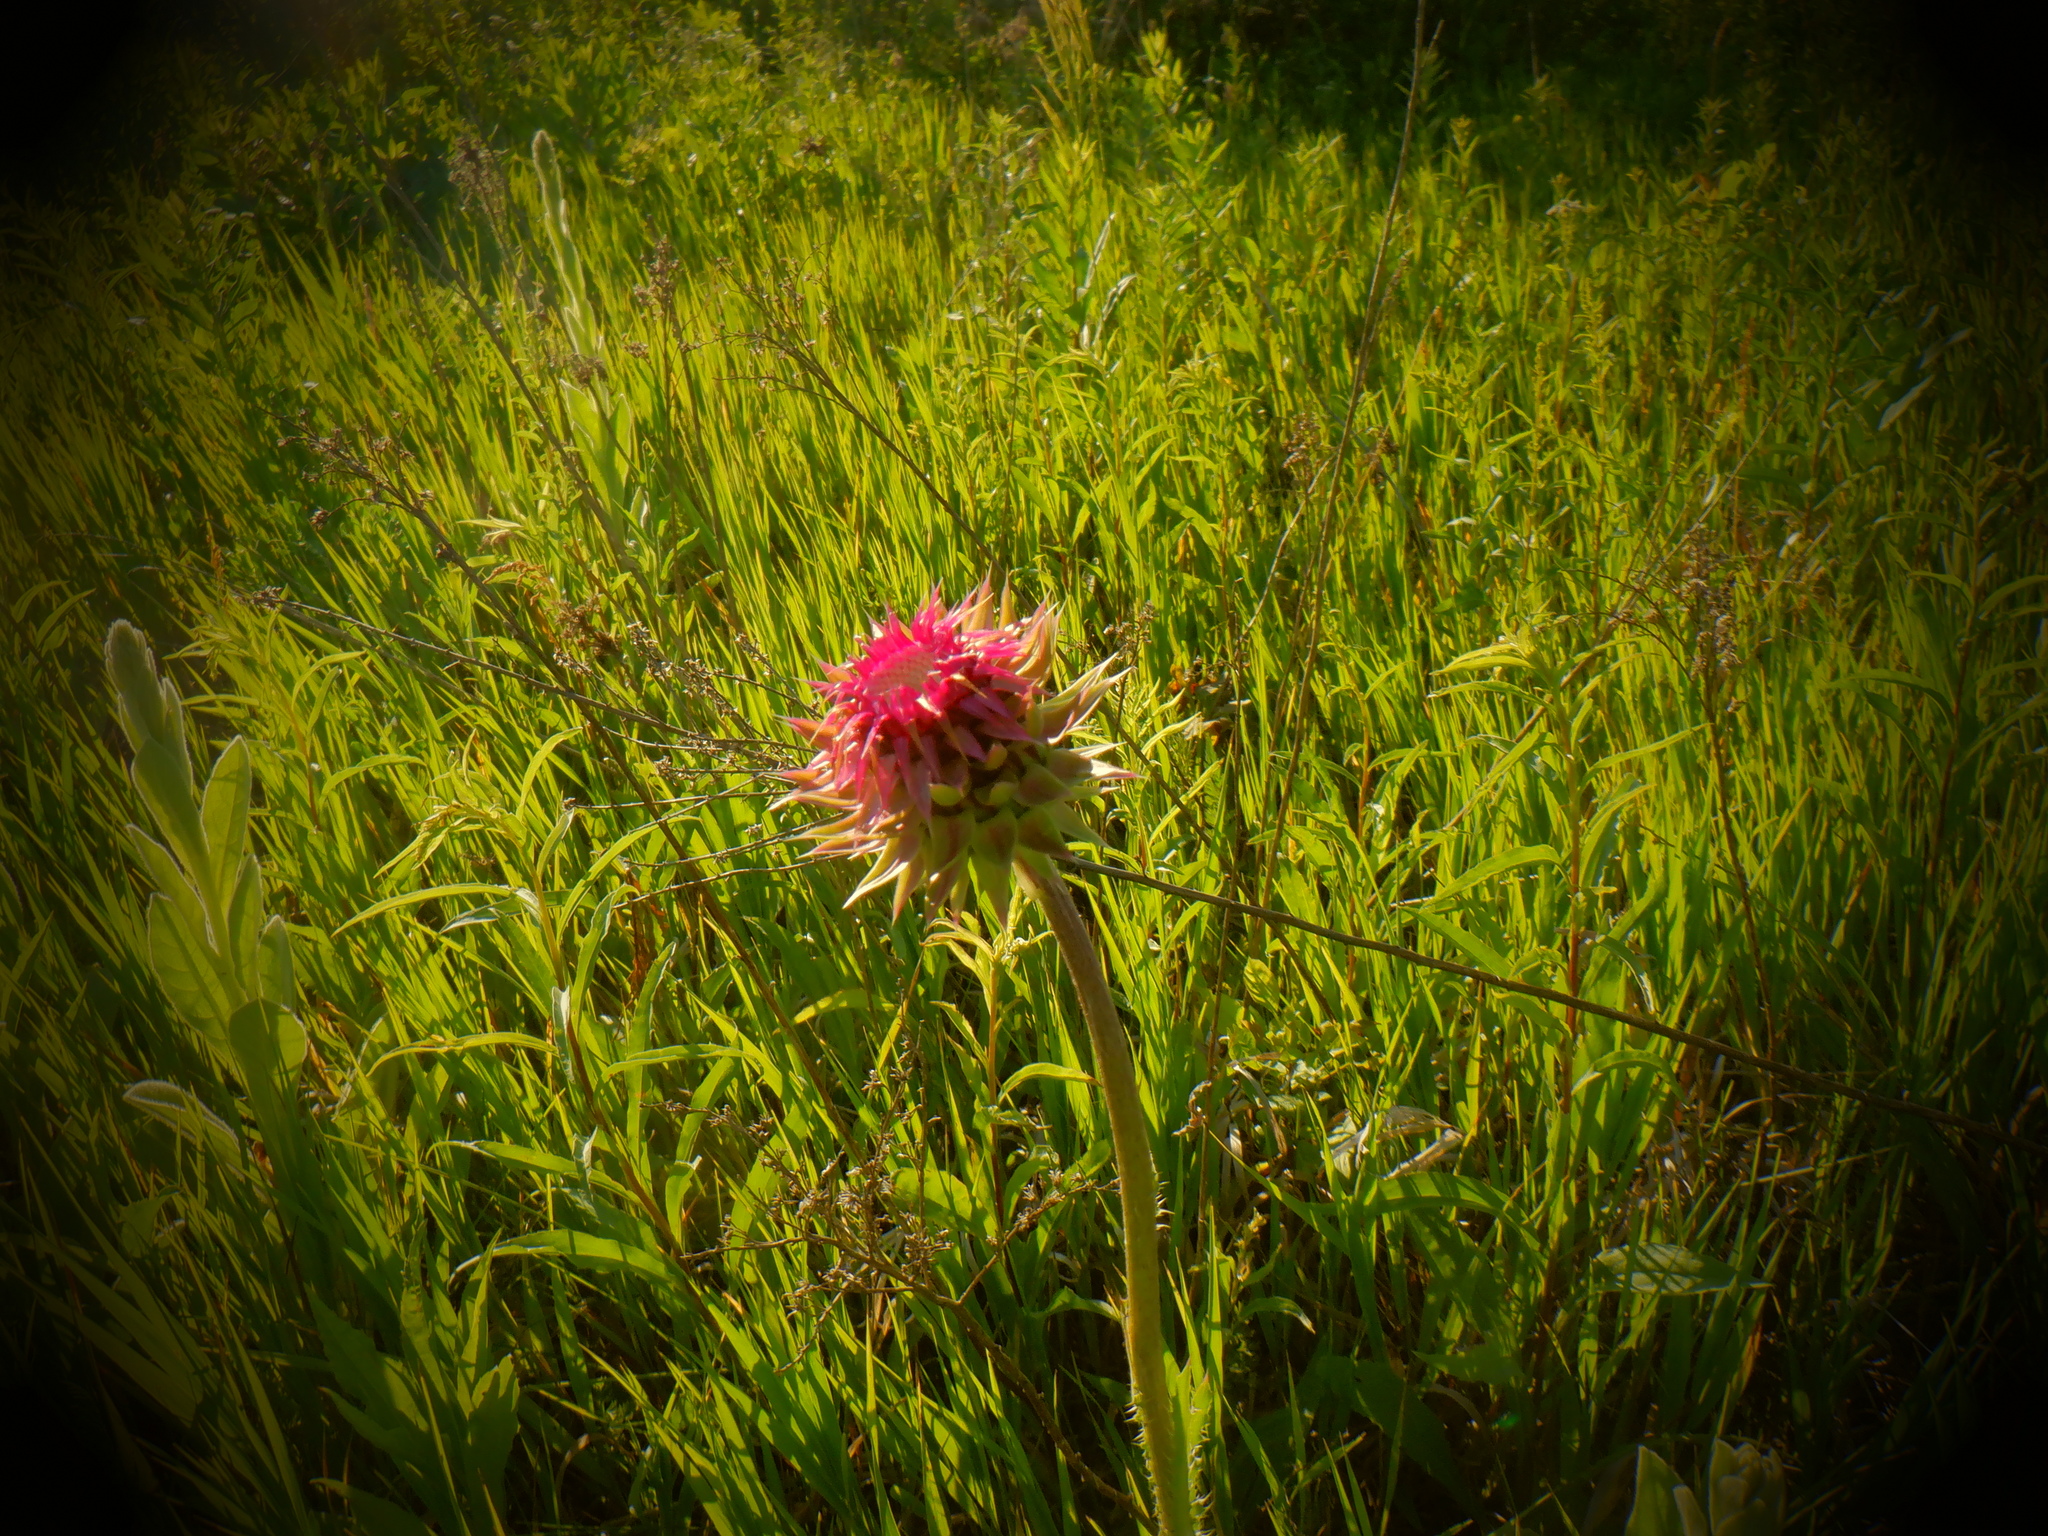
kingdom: Plantae
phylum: Tracheophyta
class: Magnoliopsida
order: Asterales
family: Asteraceae
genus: Carduus
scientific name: Carduus nutans
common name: Musk thistle
